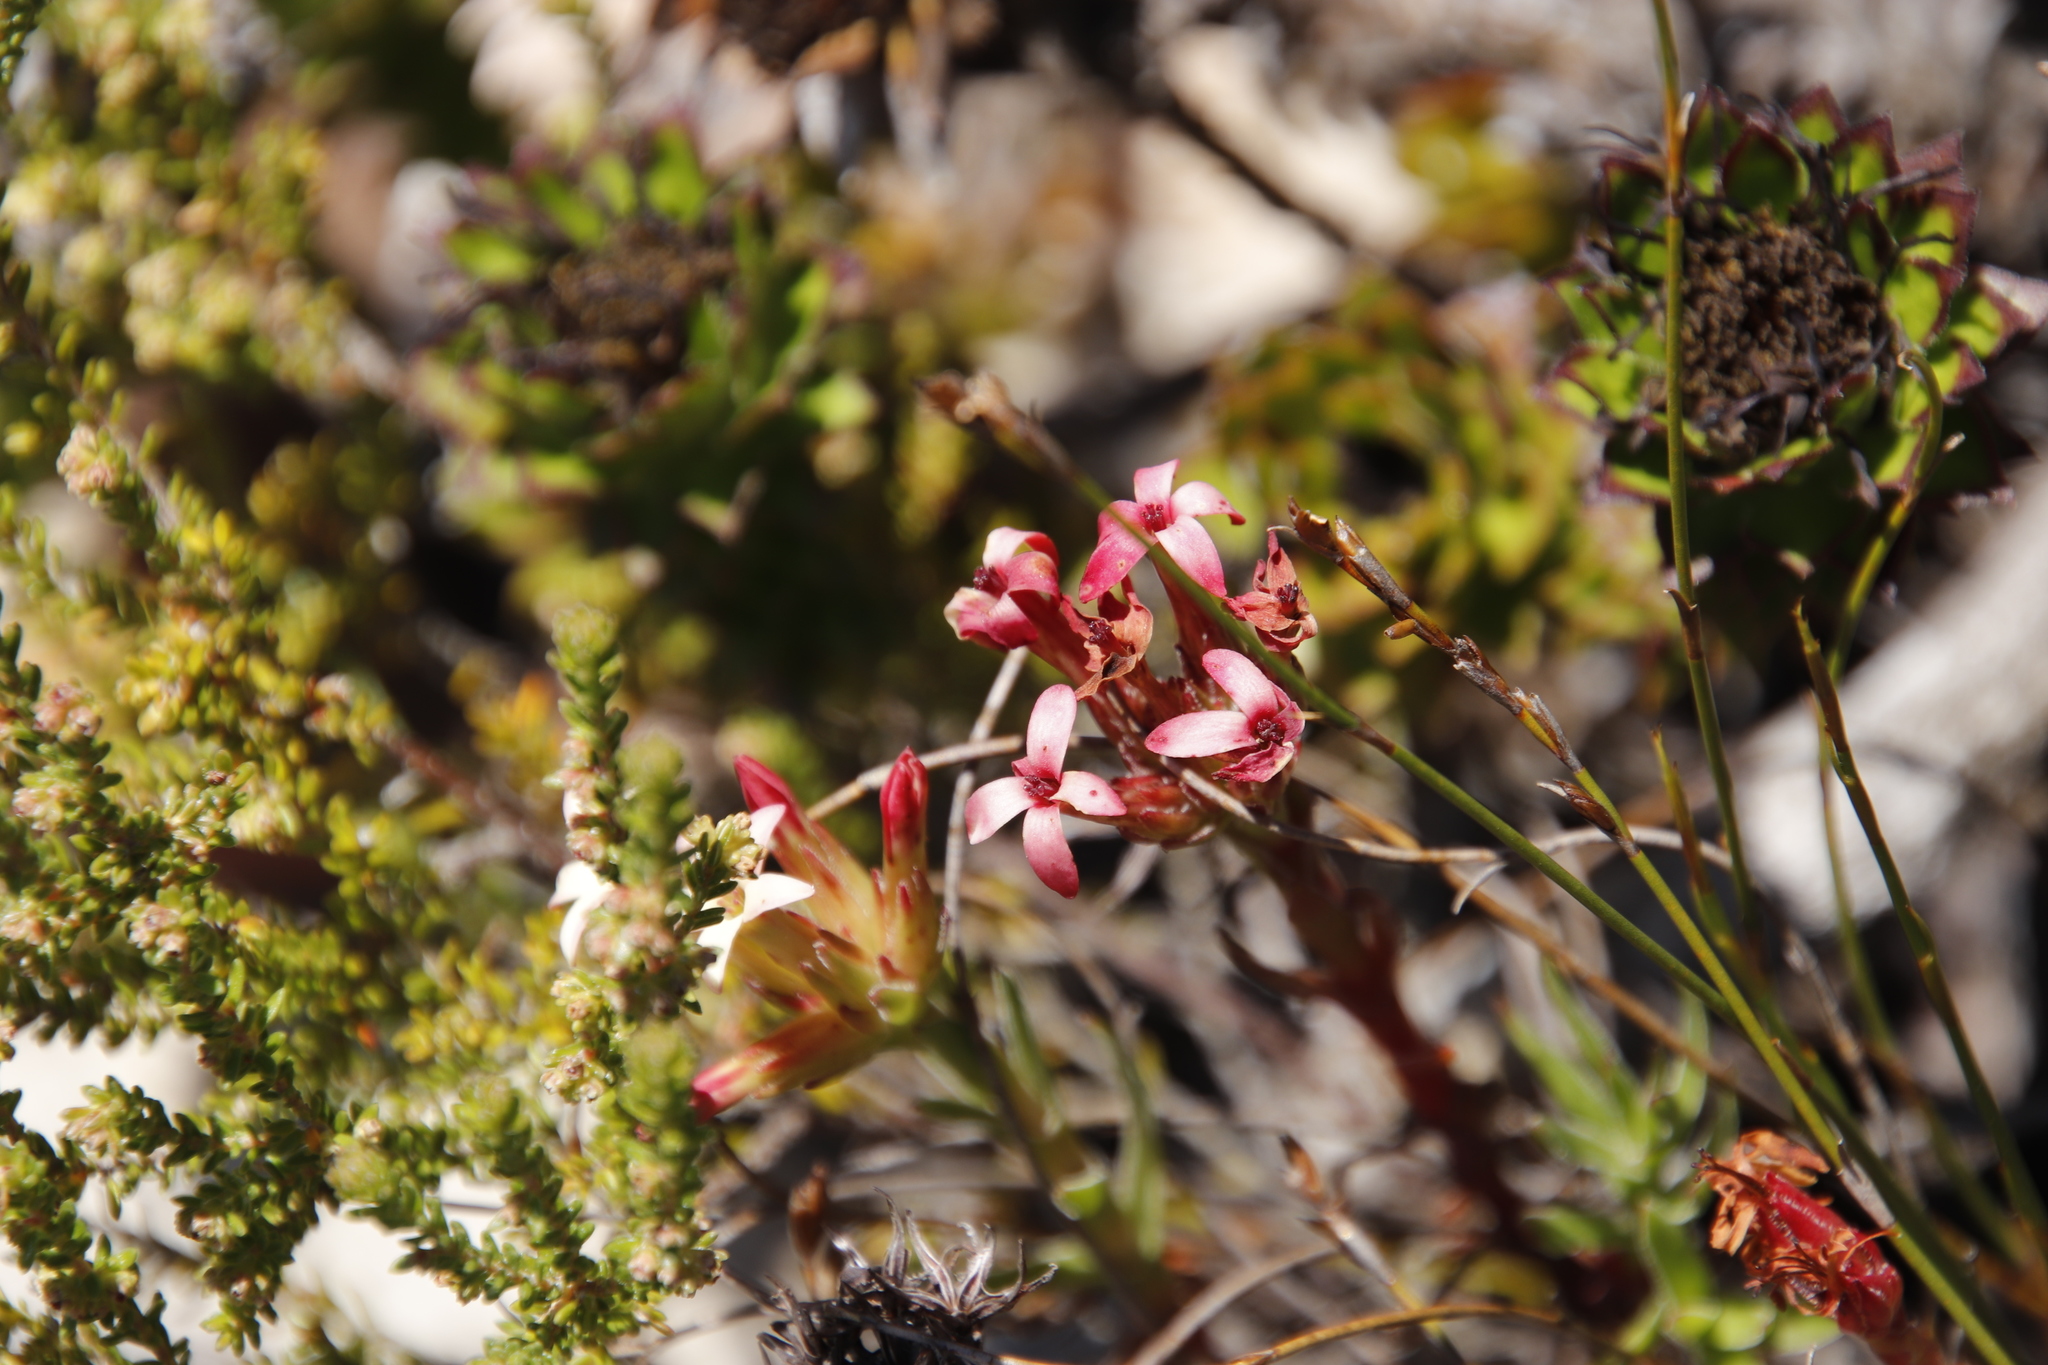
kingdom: Plantae
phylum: Tracheophyta
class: Magnoliopsida
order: Saxifragales
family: Crassulaceae
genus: Crassula
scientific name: Crassula fascicularis
